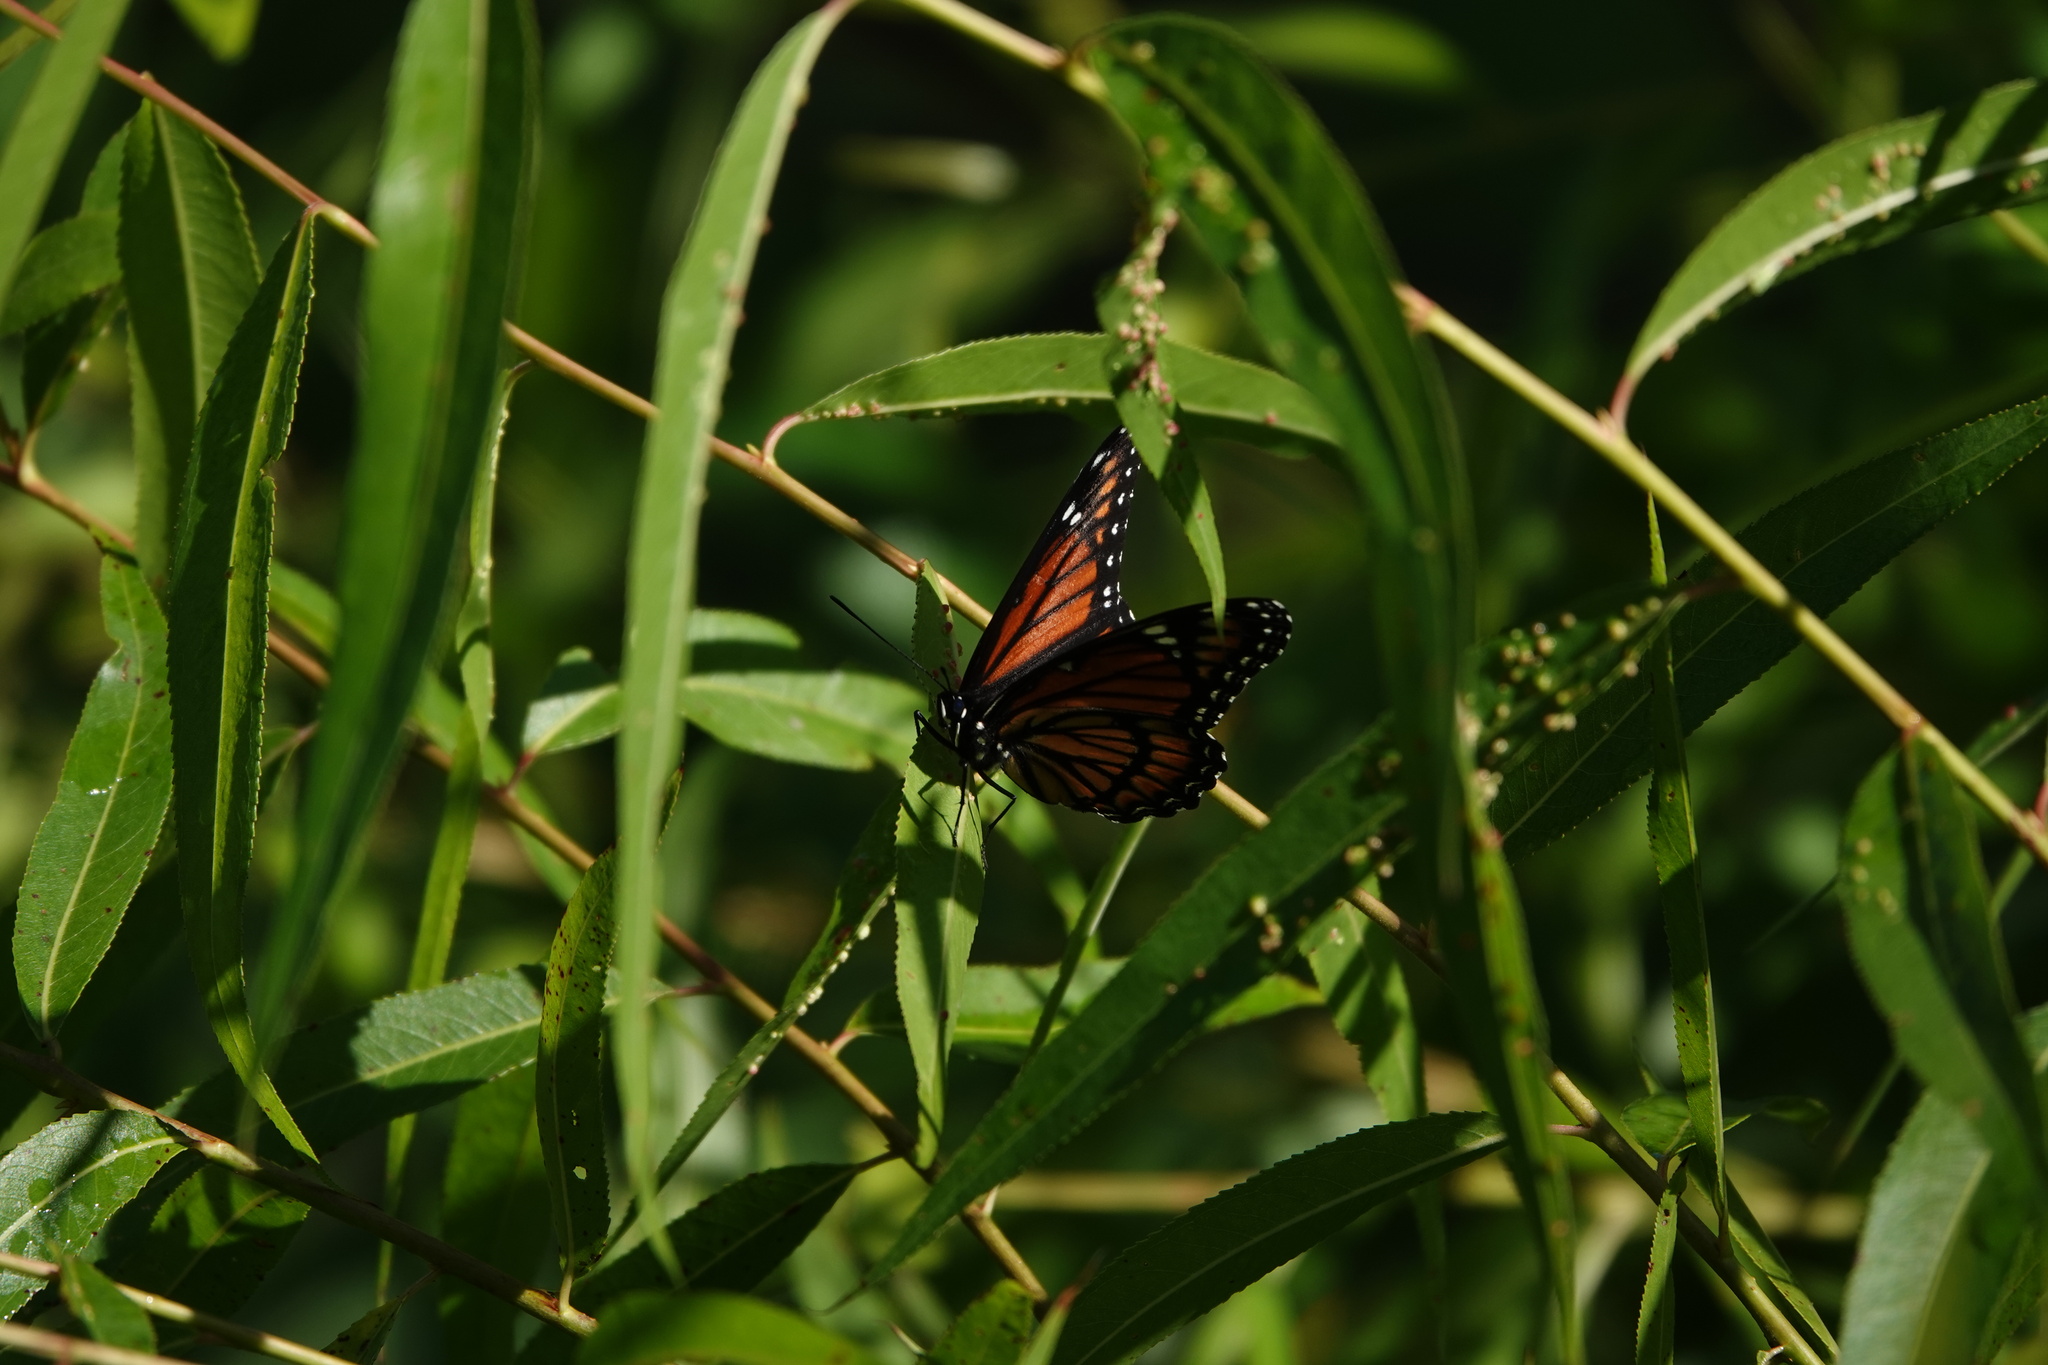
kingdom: Animalia
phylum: Arthropoda
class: Insecta
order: Lepidoptera
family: Nymphalidae
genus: Limenitis
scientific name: Limenitis archippus
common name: Viceroy
